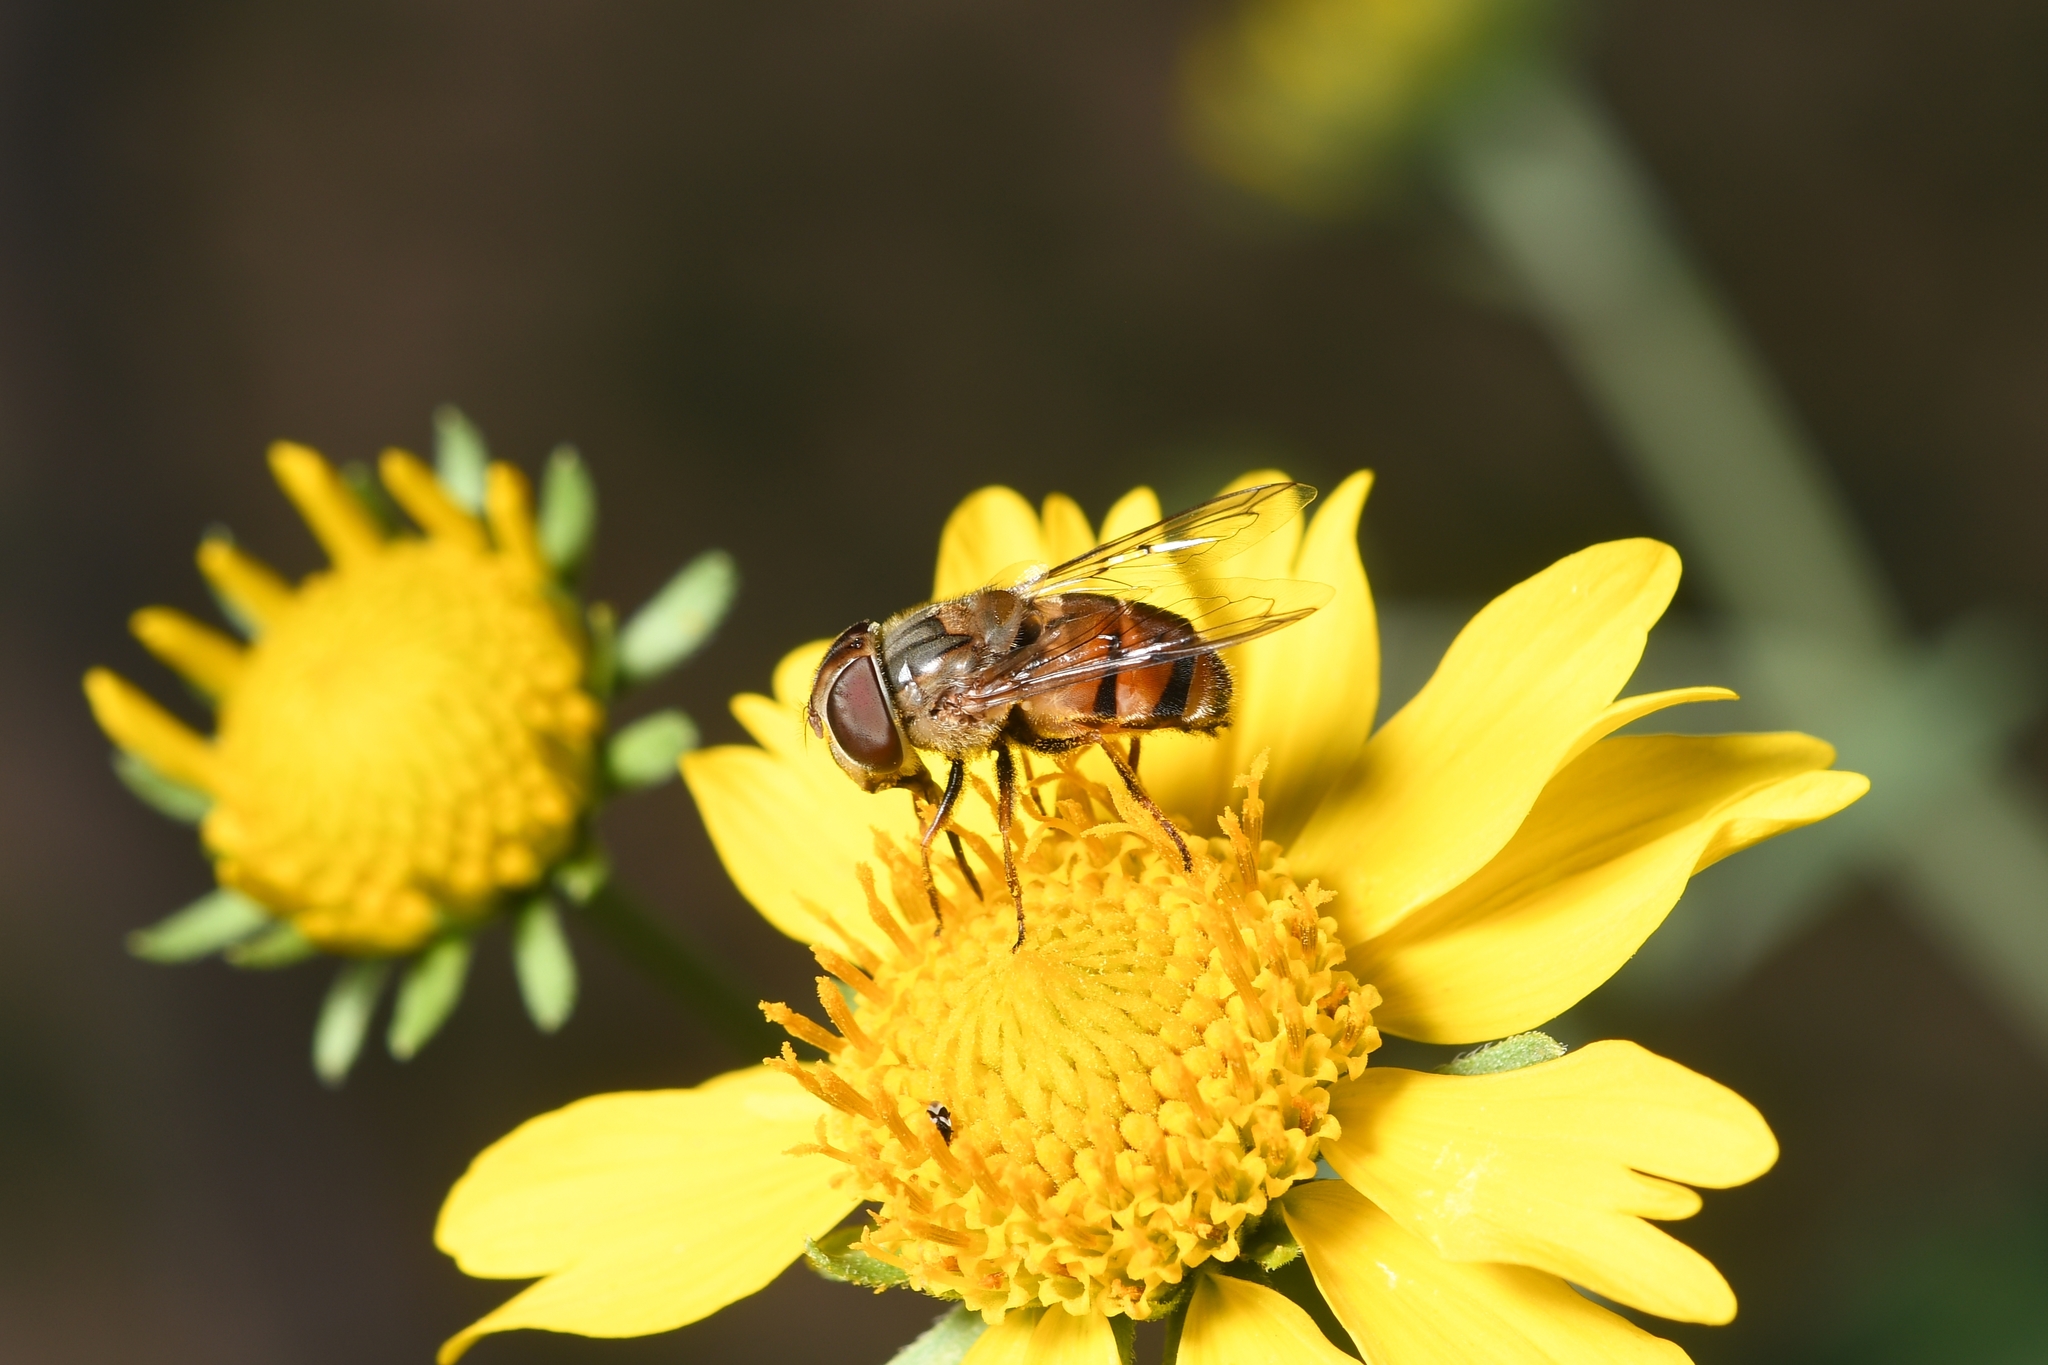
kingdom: Animalia
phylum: Arthropoda
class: Insecta
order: Diptera
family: Syrphidae
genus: Copestylum
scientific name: Copestylum isabellina
